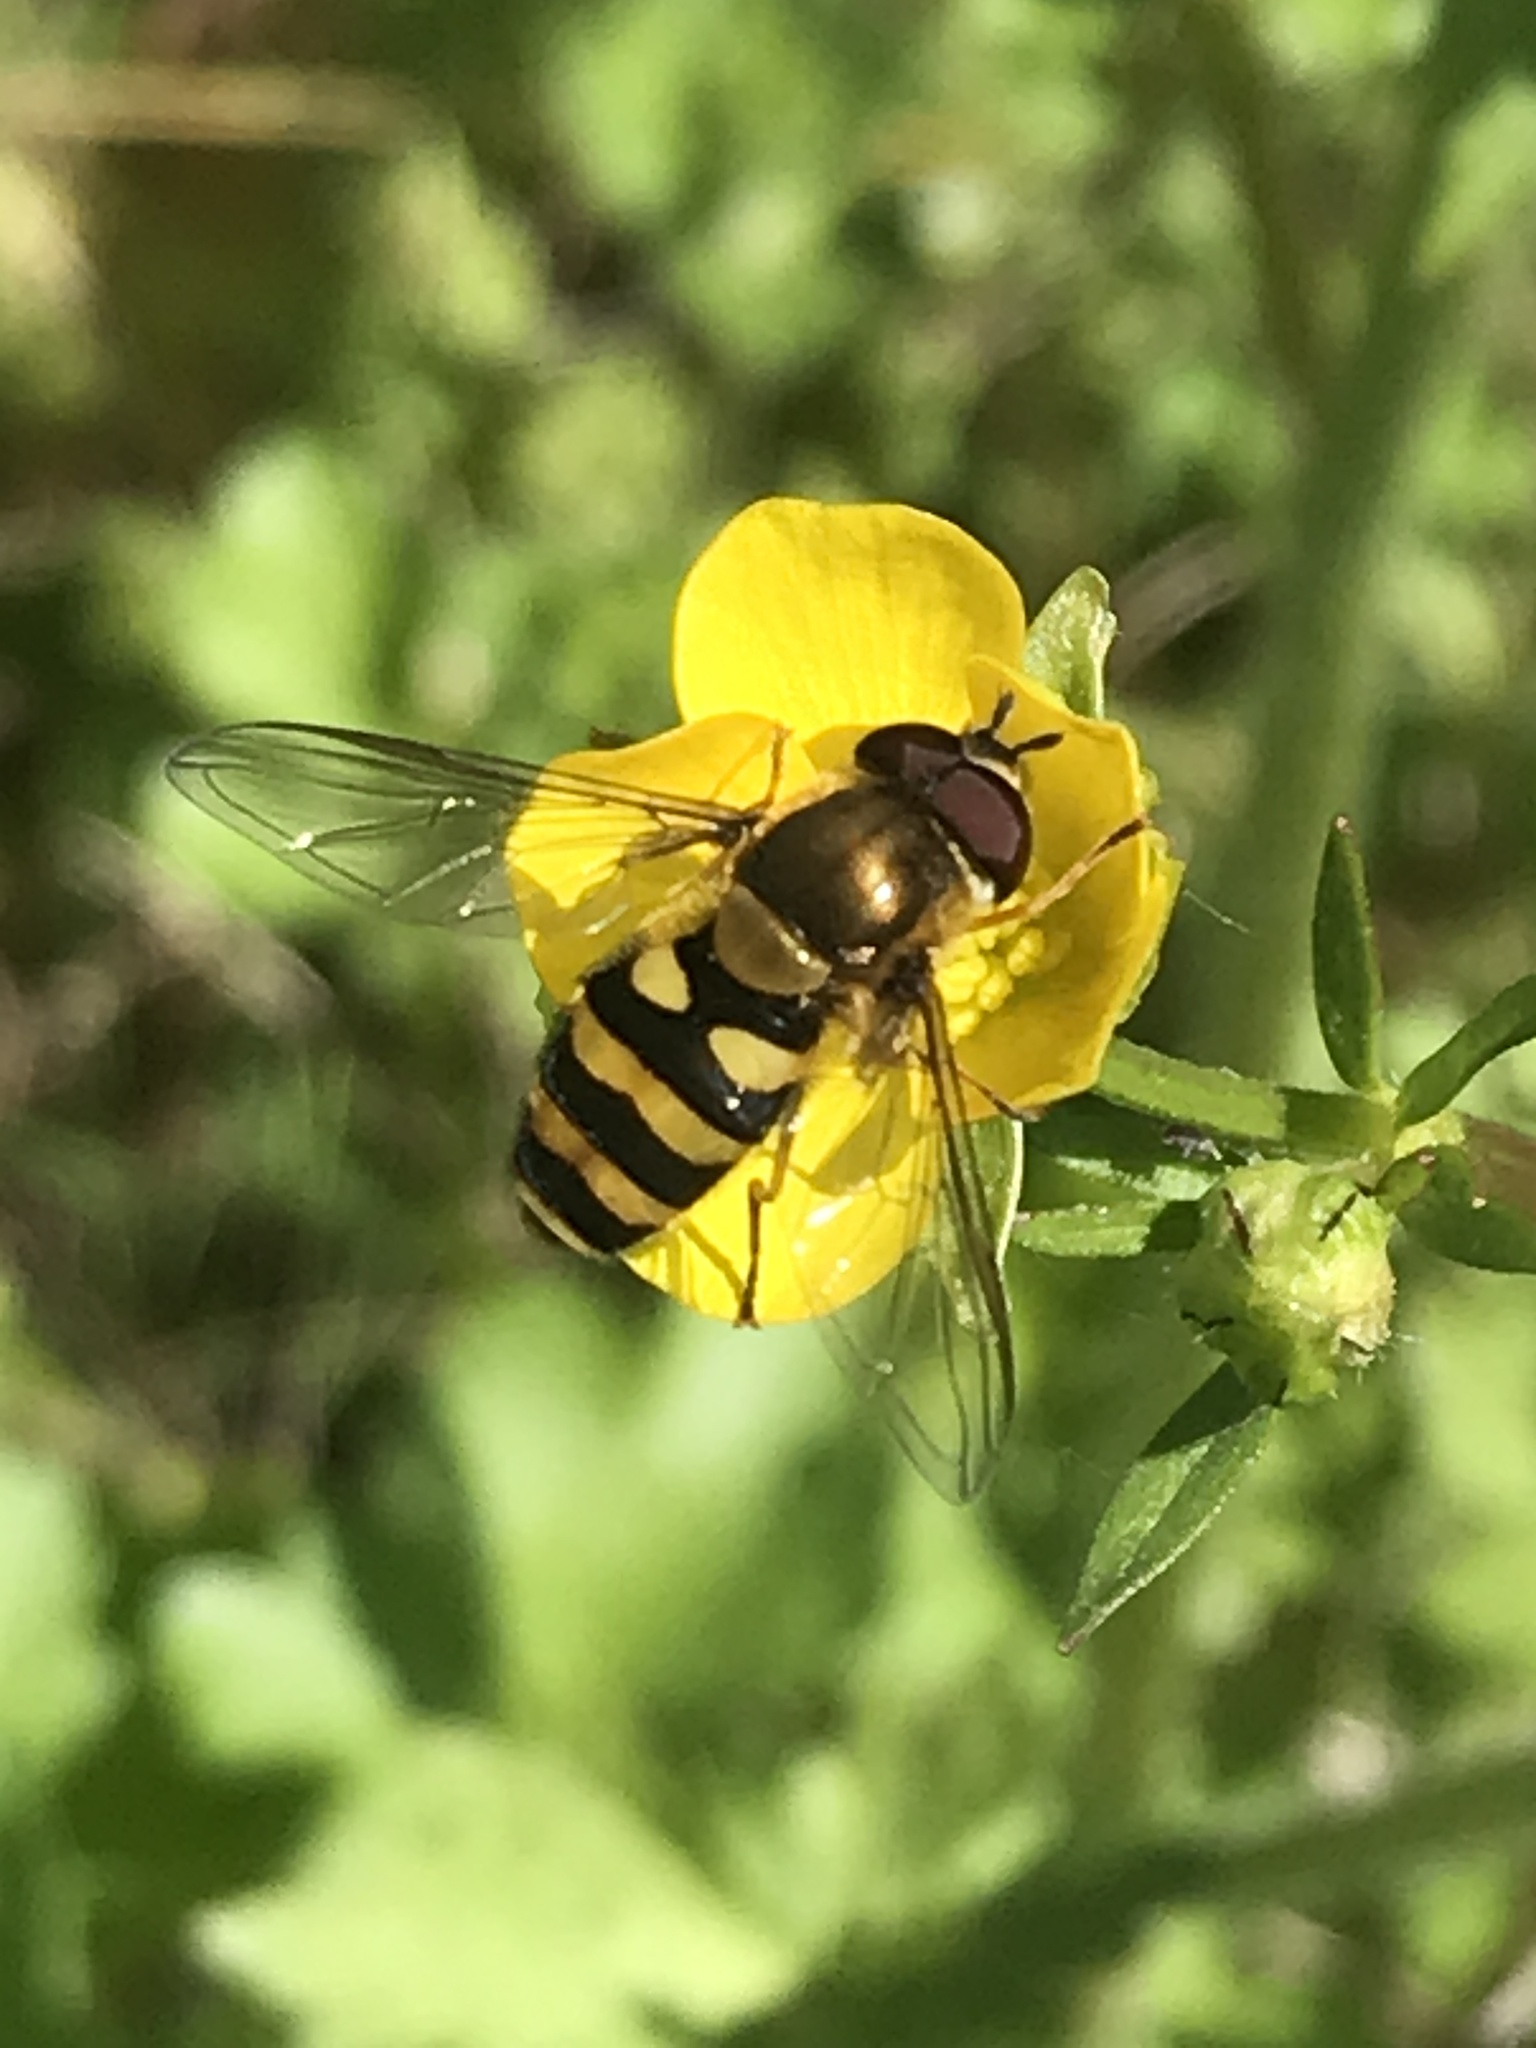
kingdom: Animalia
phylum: Arthropoda
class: Insecta
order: Diptera
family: Syrphidae
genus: Syrphus
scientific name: Syrphus
